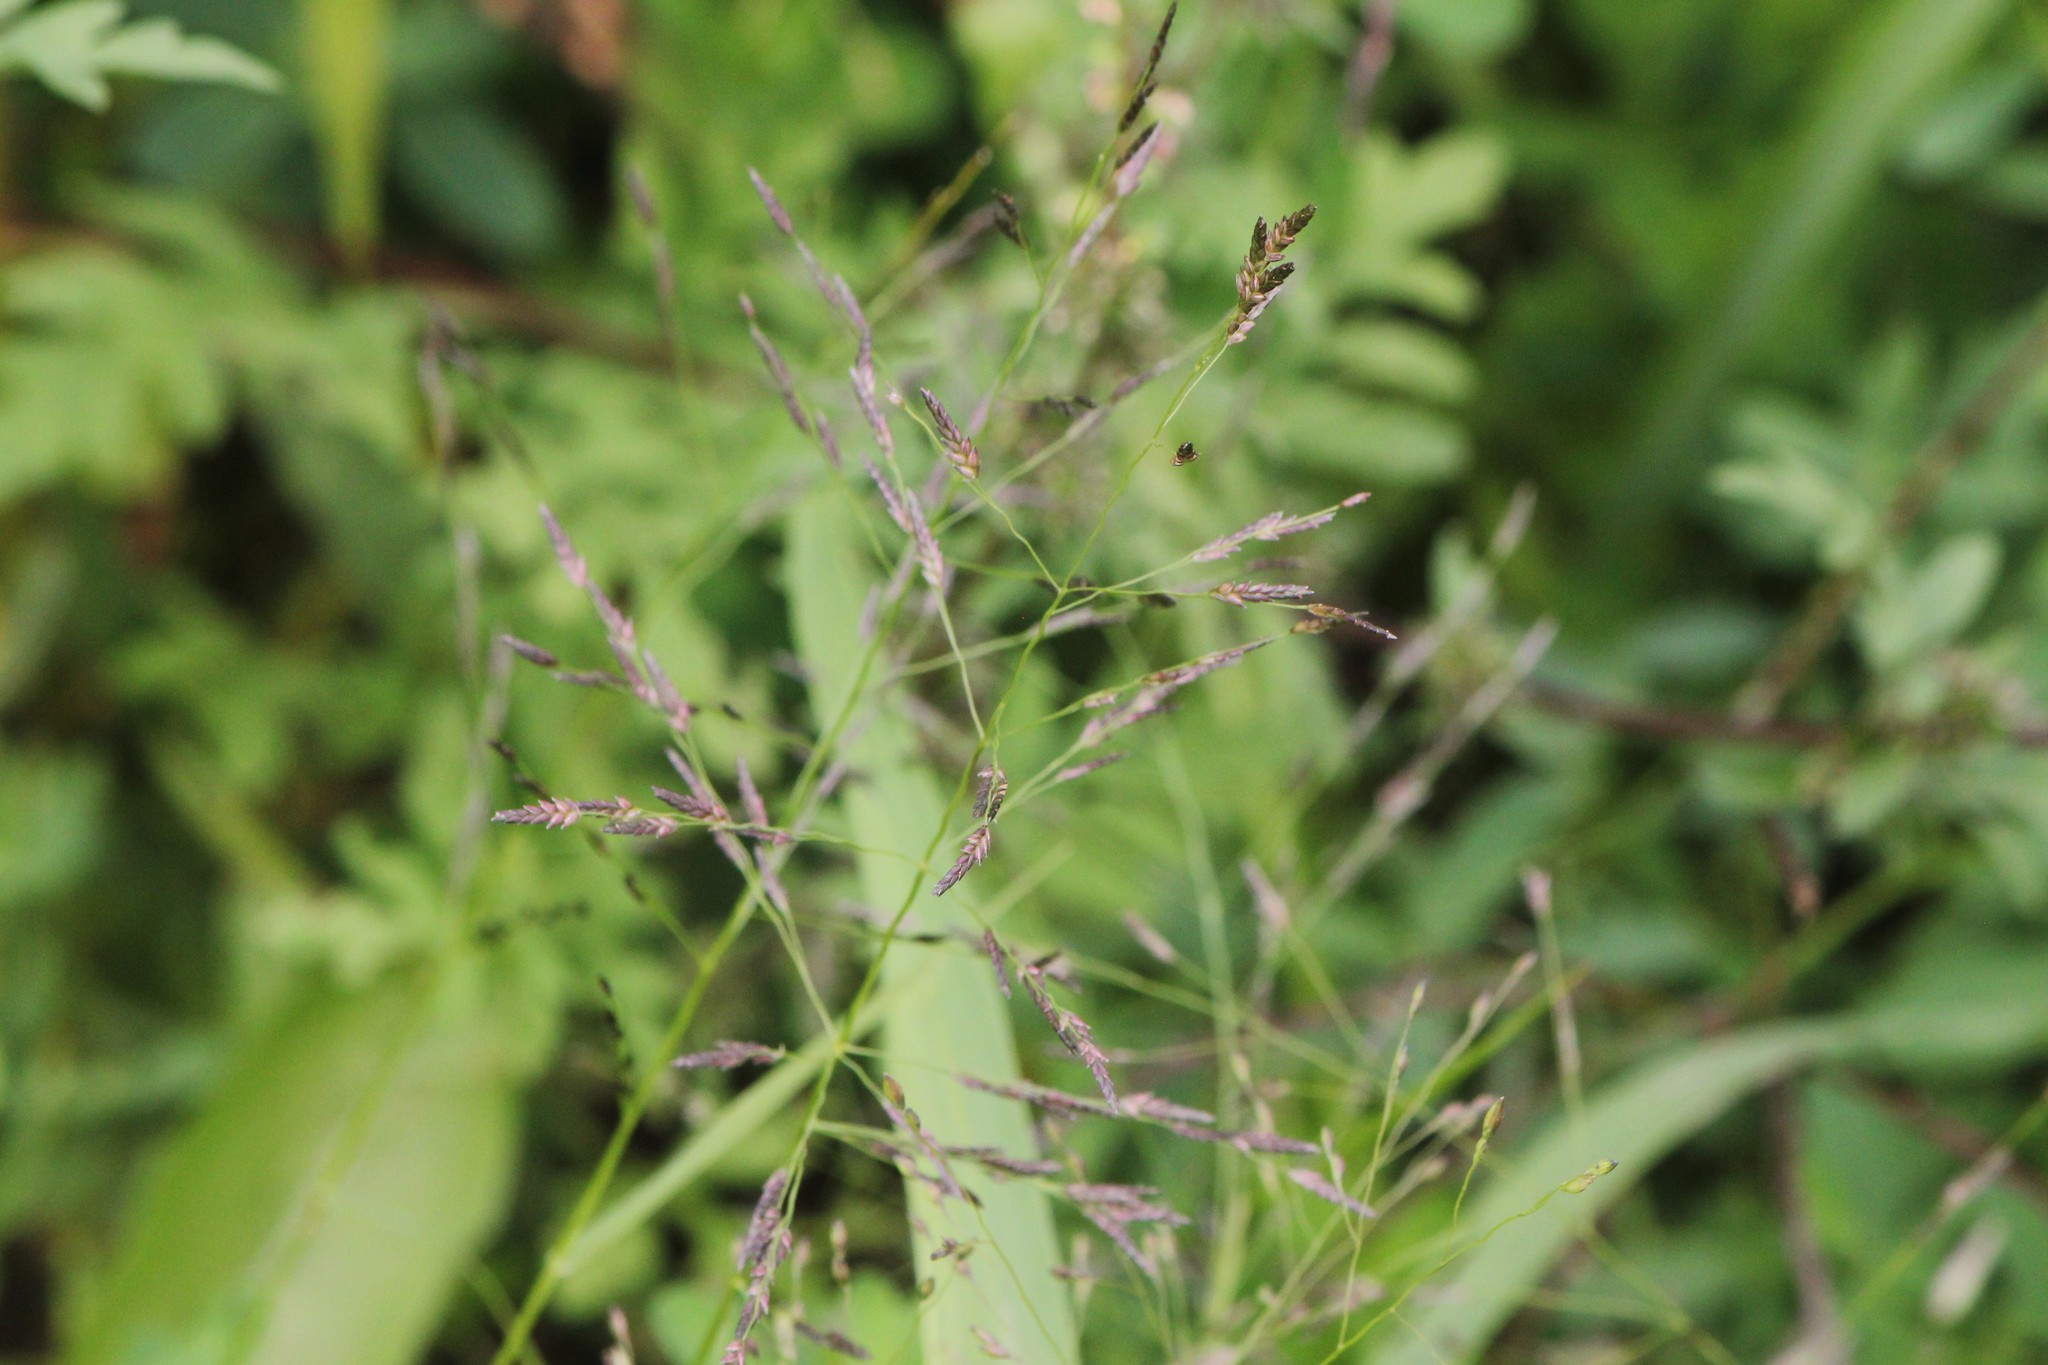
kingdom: Plantae
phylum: Tracheophyta
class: Liliopsida
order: Poales
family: Poaceae
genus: Eragrostis
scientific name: Eragrostis pectinacea
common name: Tufted lovegrass
